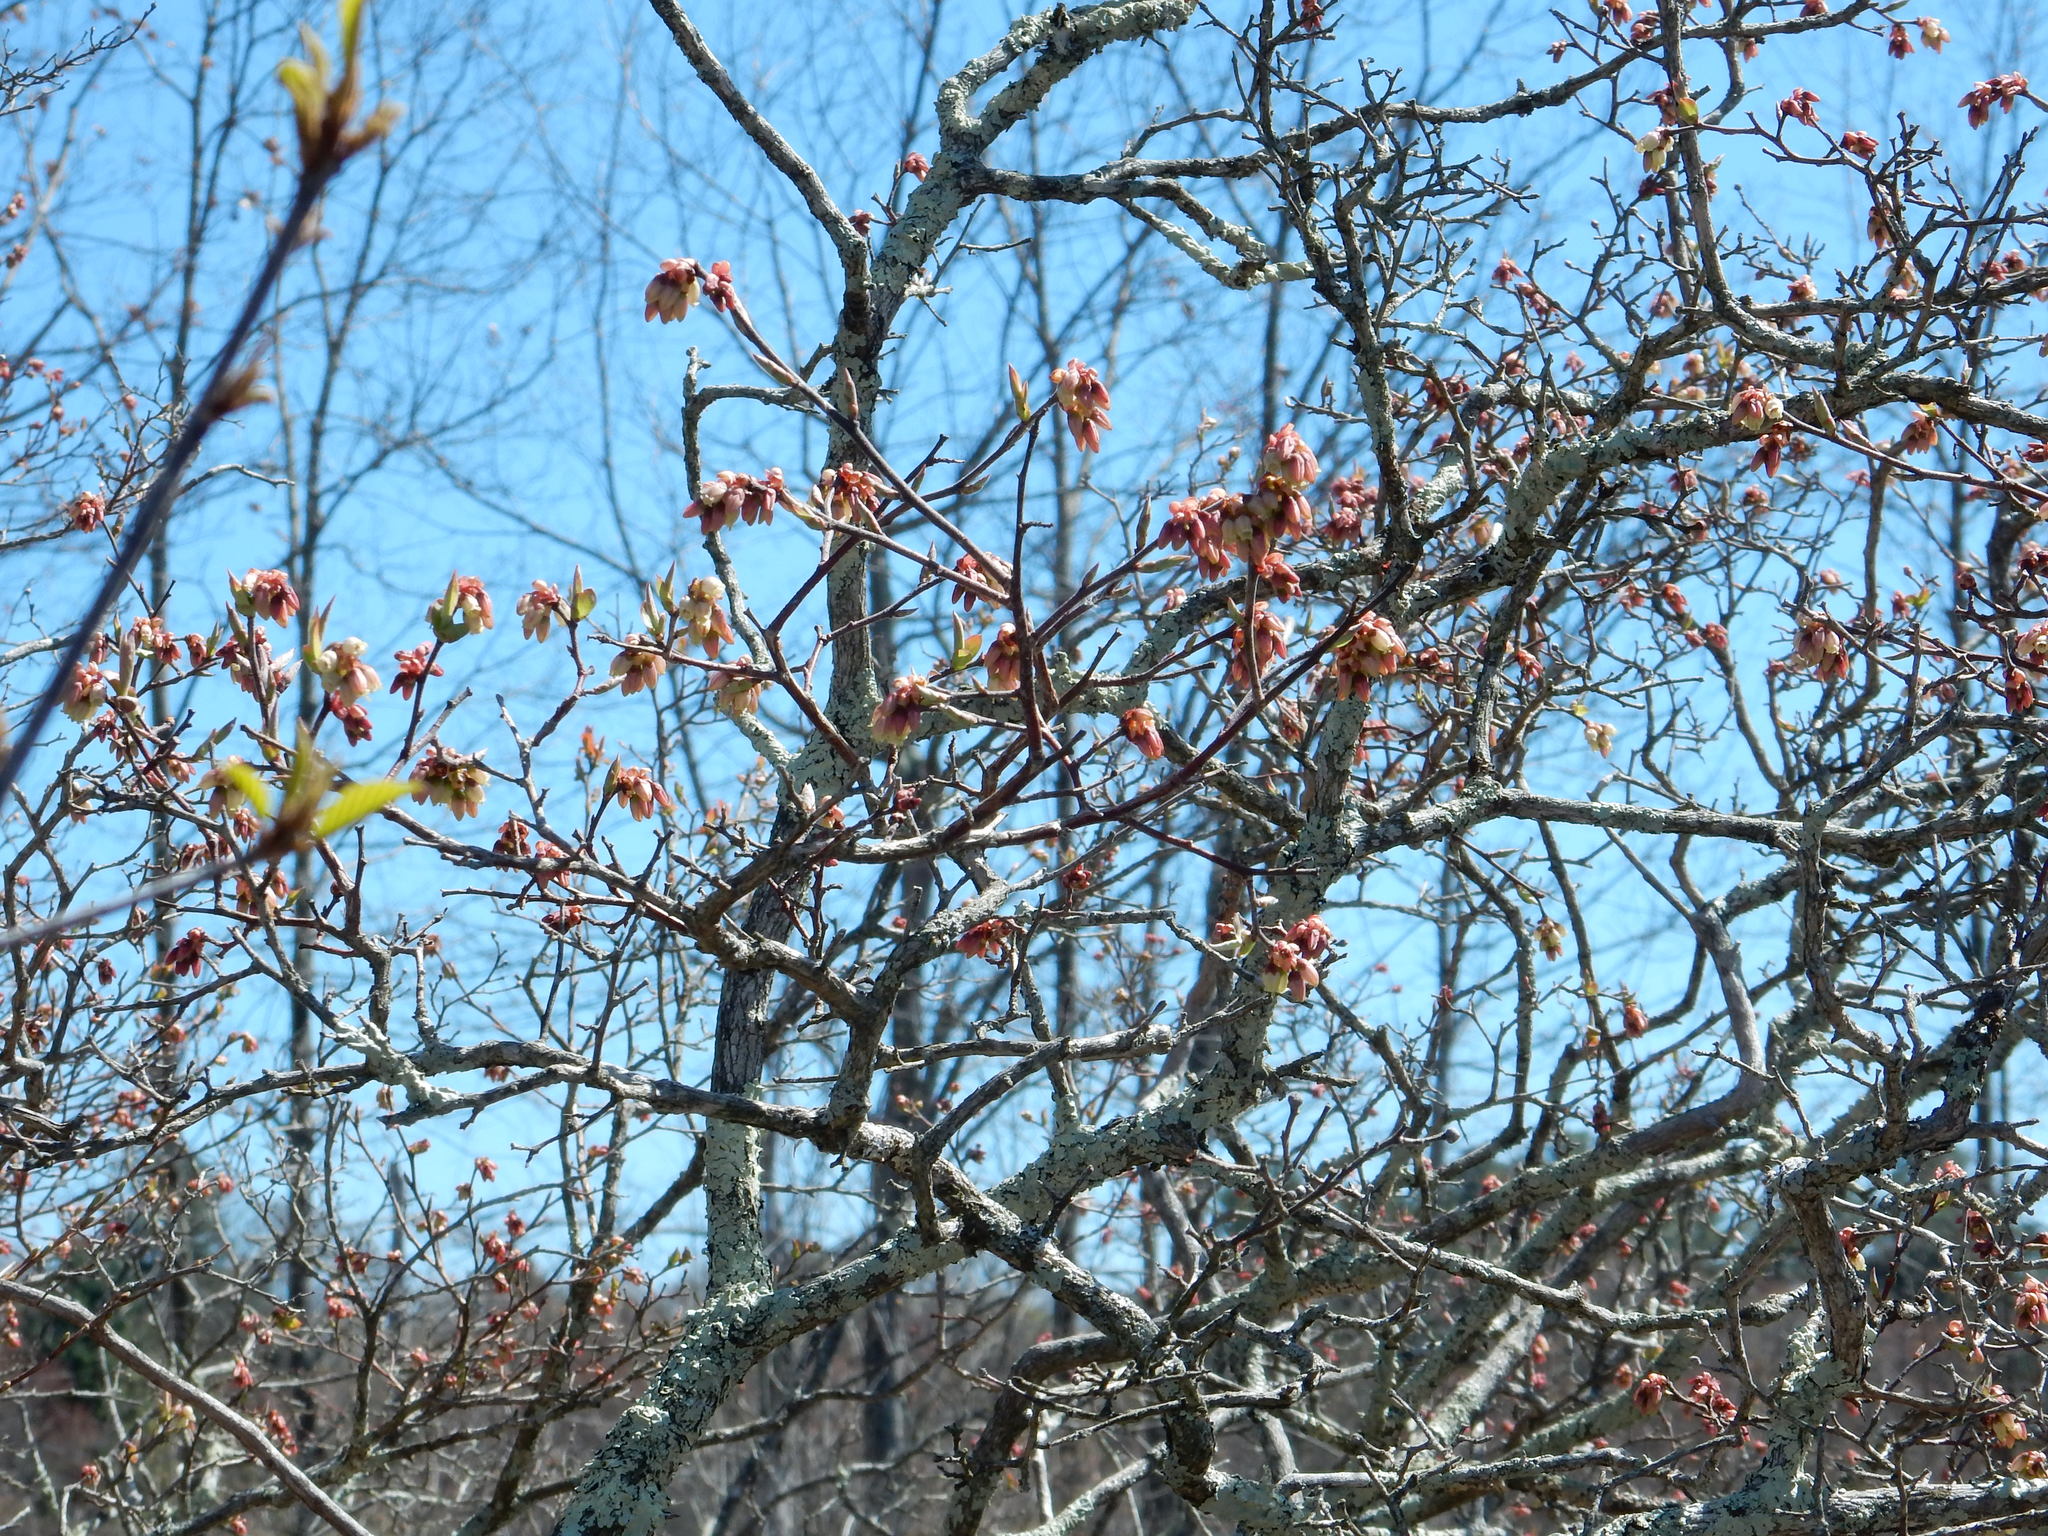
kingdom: Plantae
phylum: Tracheophyta
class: Magnoliopsida
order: Ericales
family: Ericaceae
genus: Vaccinium
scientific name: Vaccinium corymbosum
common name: Blueberry
